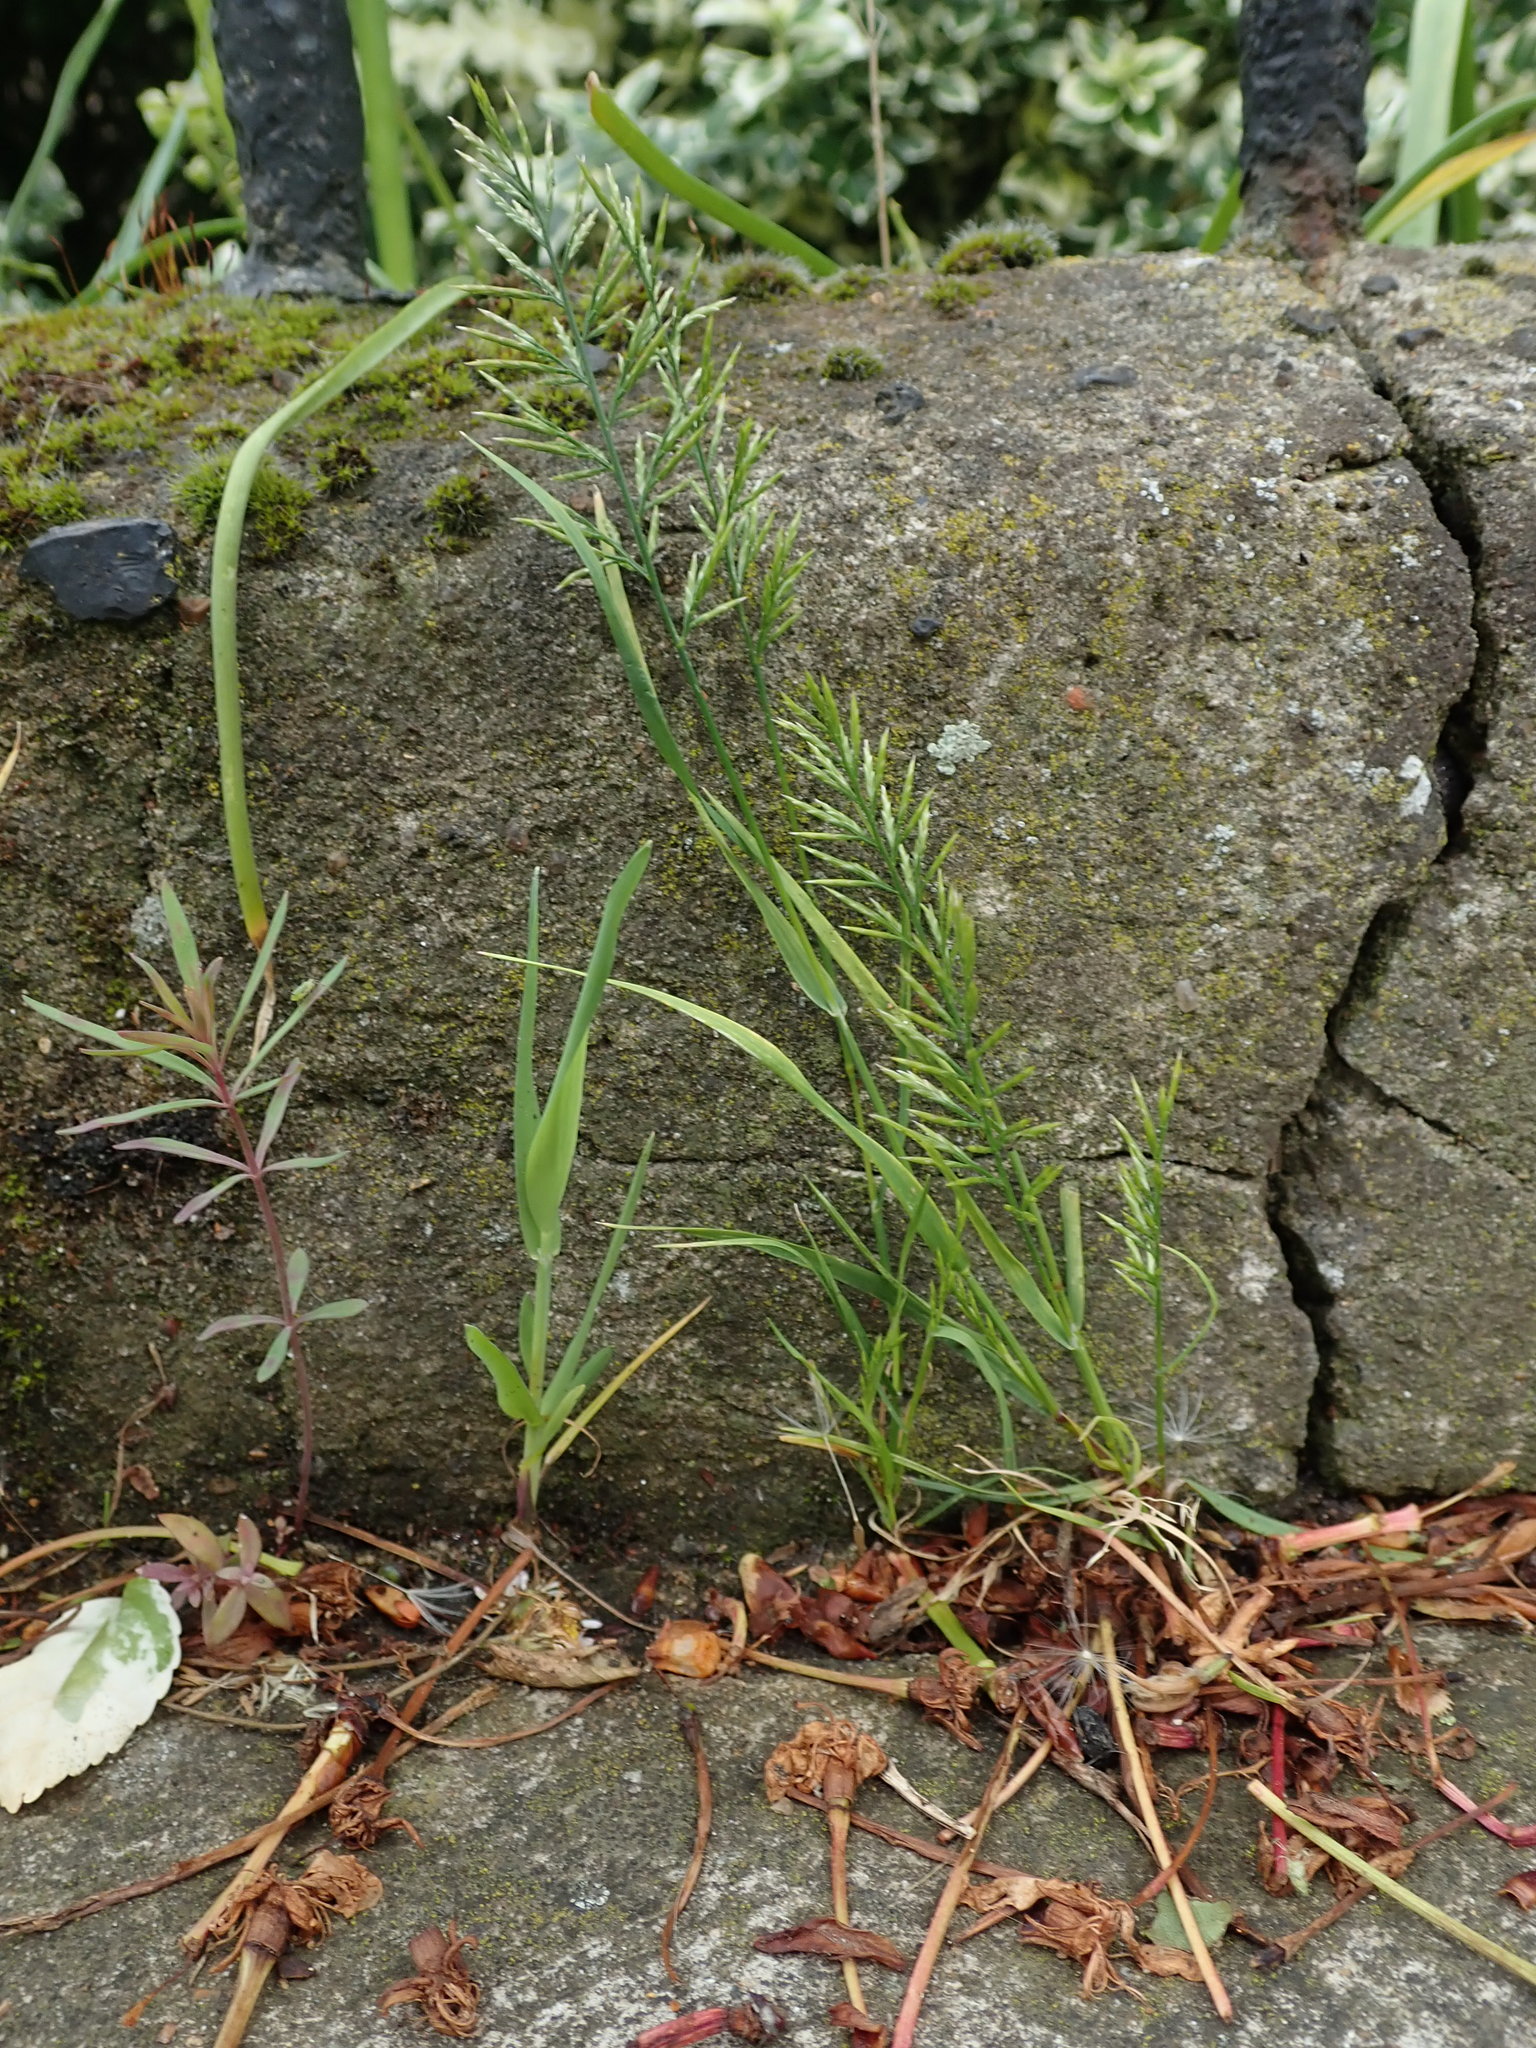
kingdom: Plantae
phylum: Tracheophyta
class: Liliopsida
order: Poales
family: Poaceae
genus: Catapodium
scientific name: Catapodium rigidum
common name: Fern-grass
